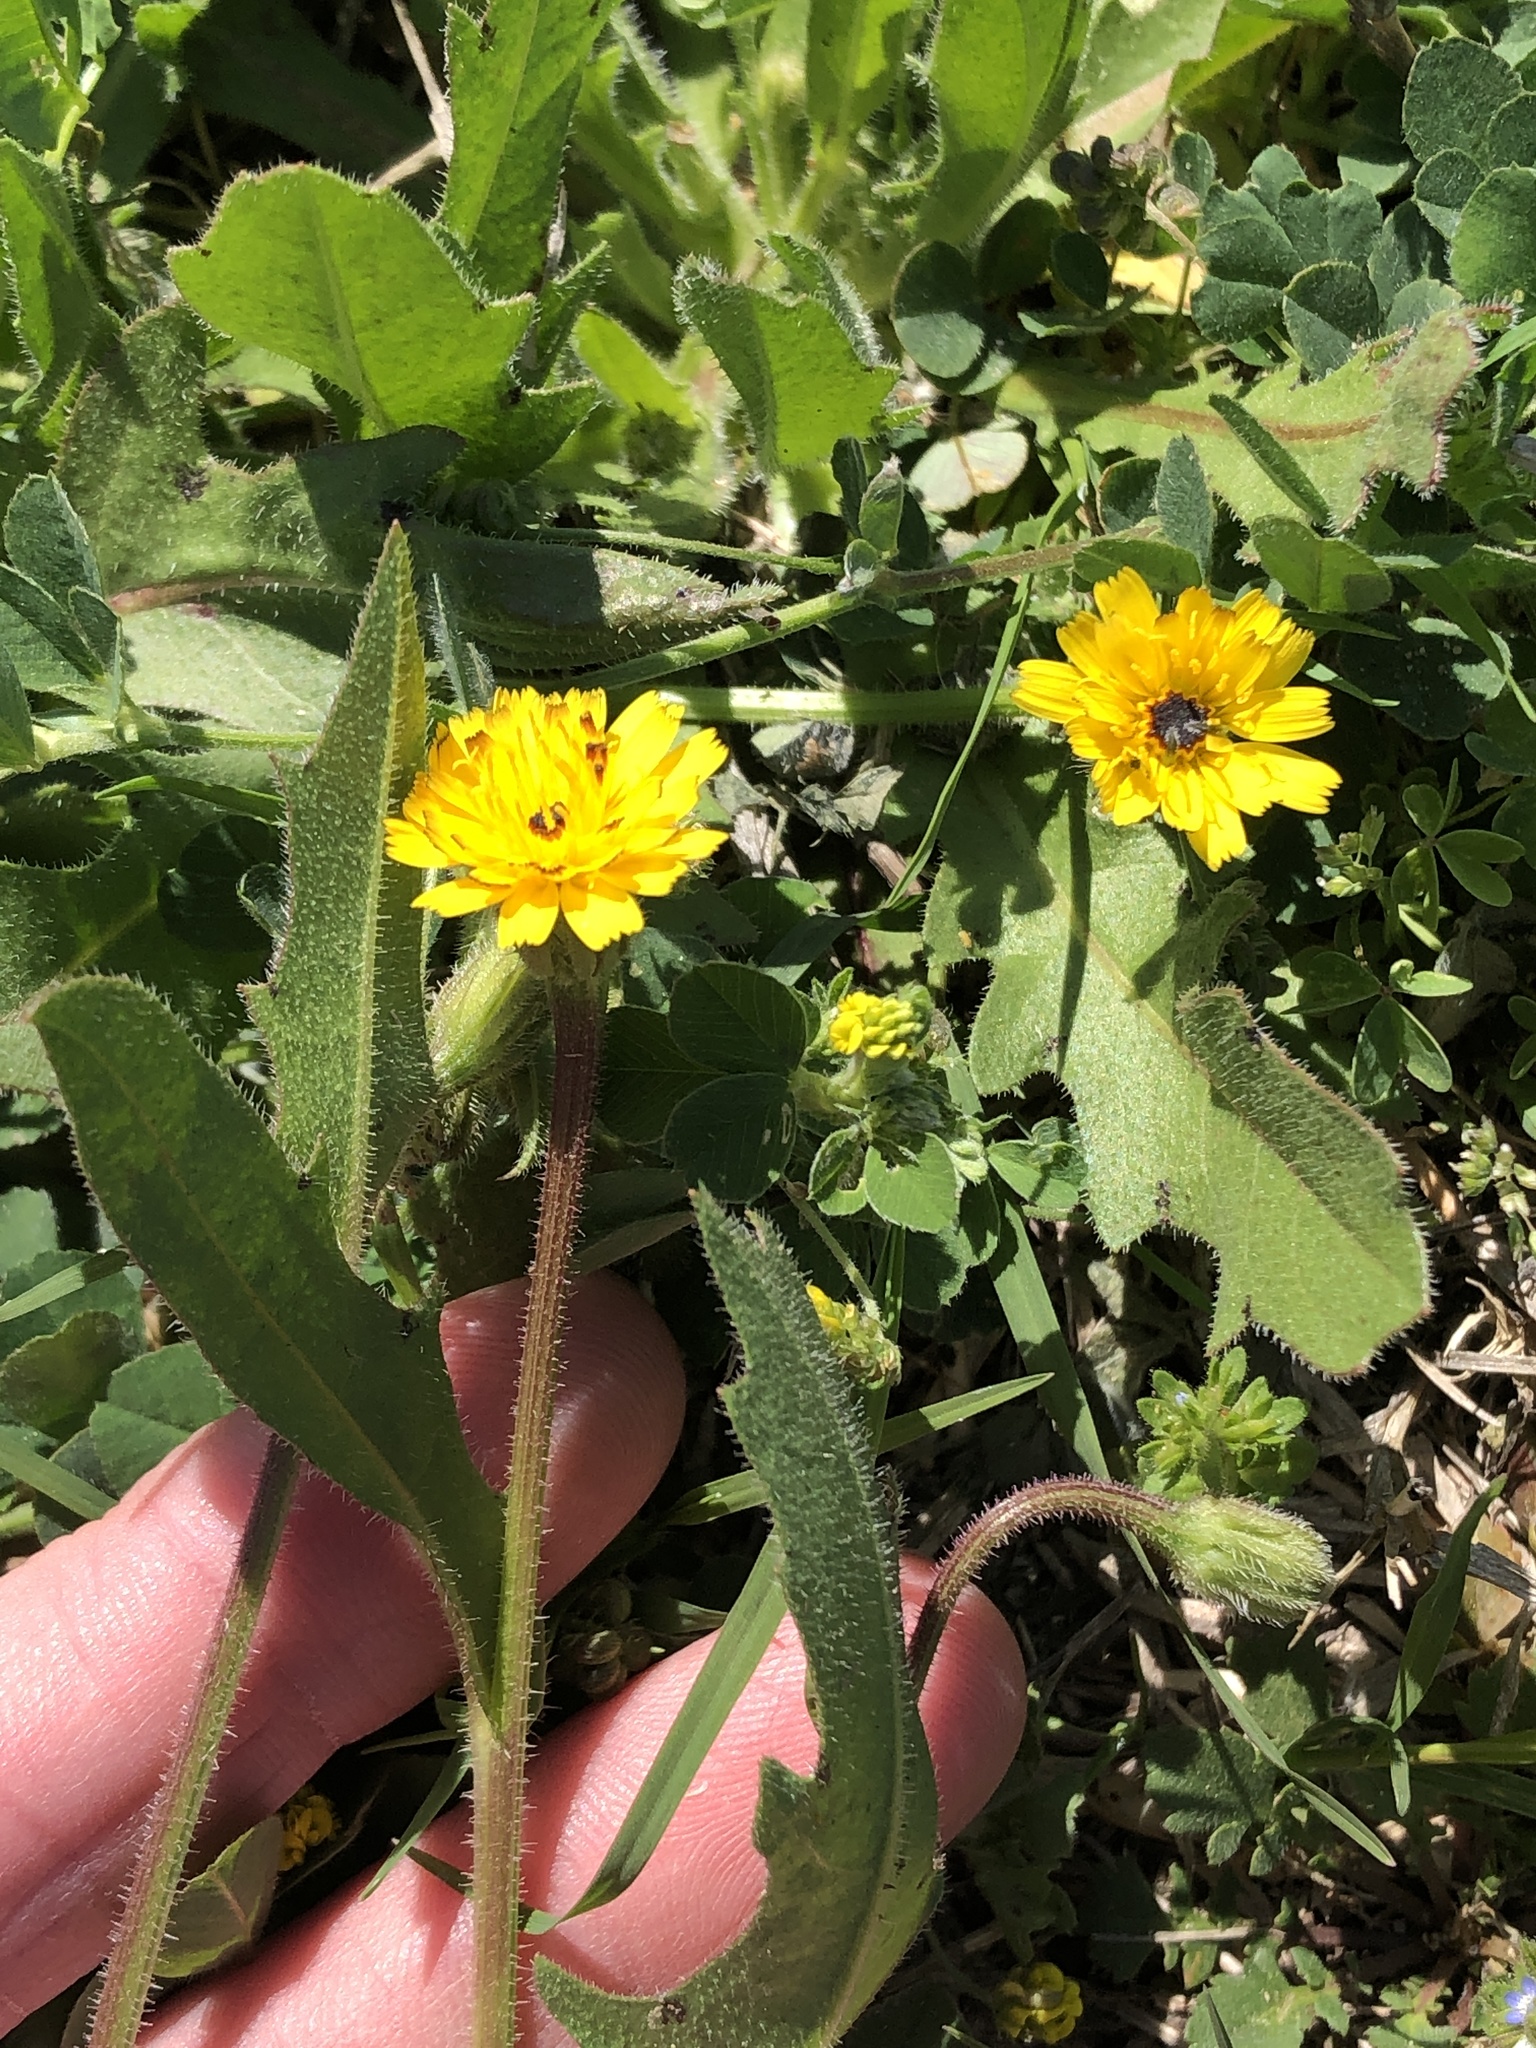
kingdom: Plantae
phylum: Tracheophyta
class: Magnoliopsida
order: Asterales
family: Asteraceae
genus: Hedypnois
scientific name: Hedypnois rhagadioloides
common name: Cretan weed
